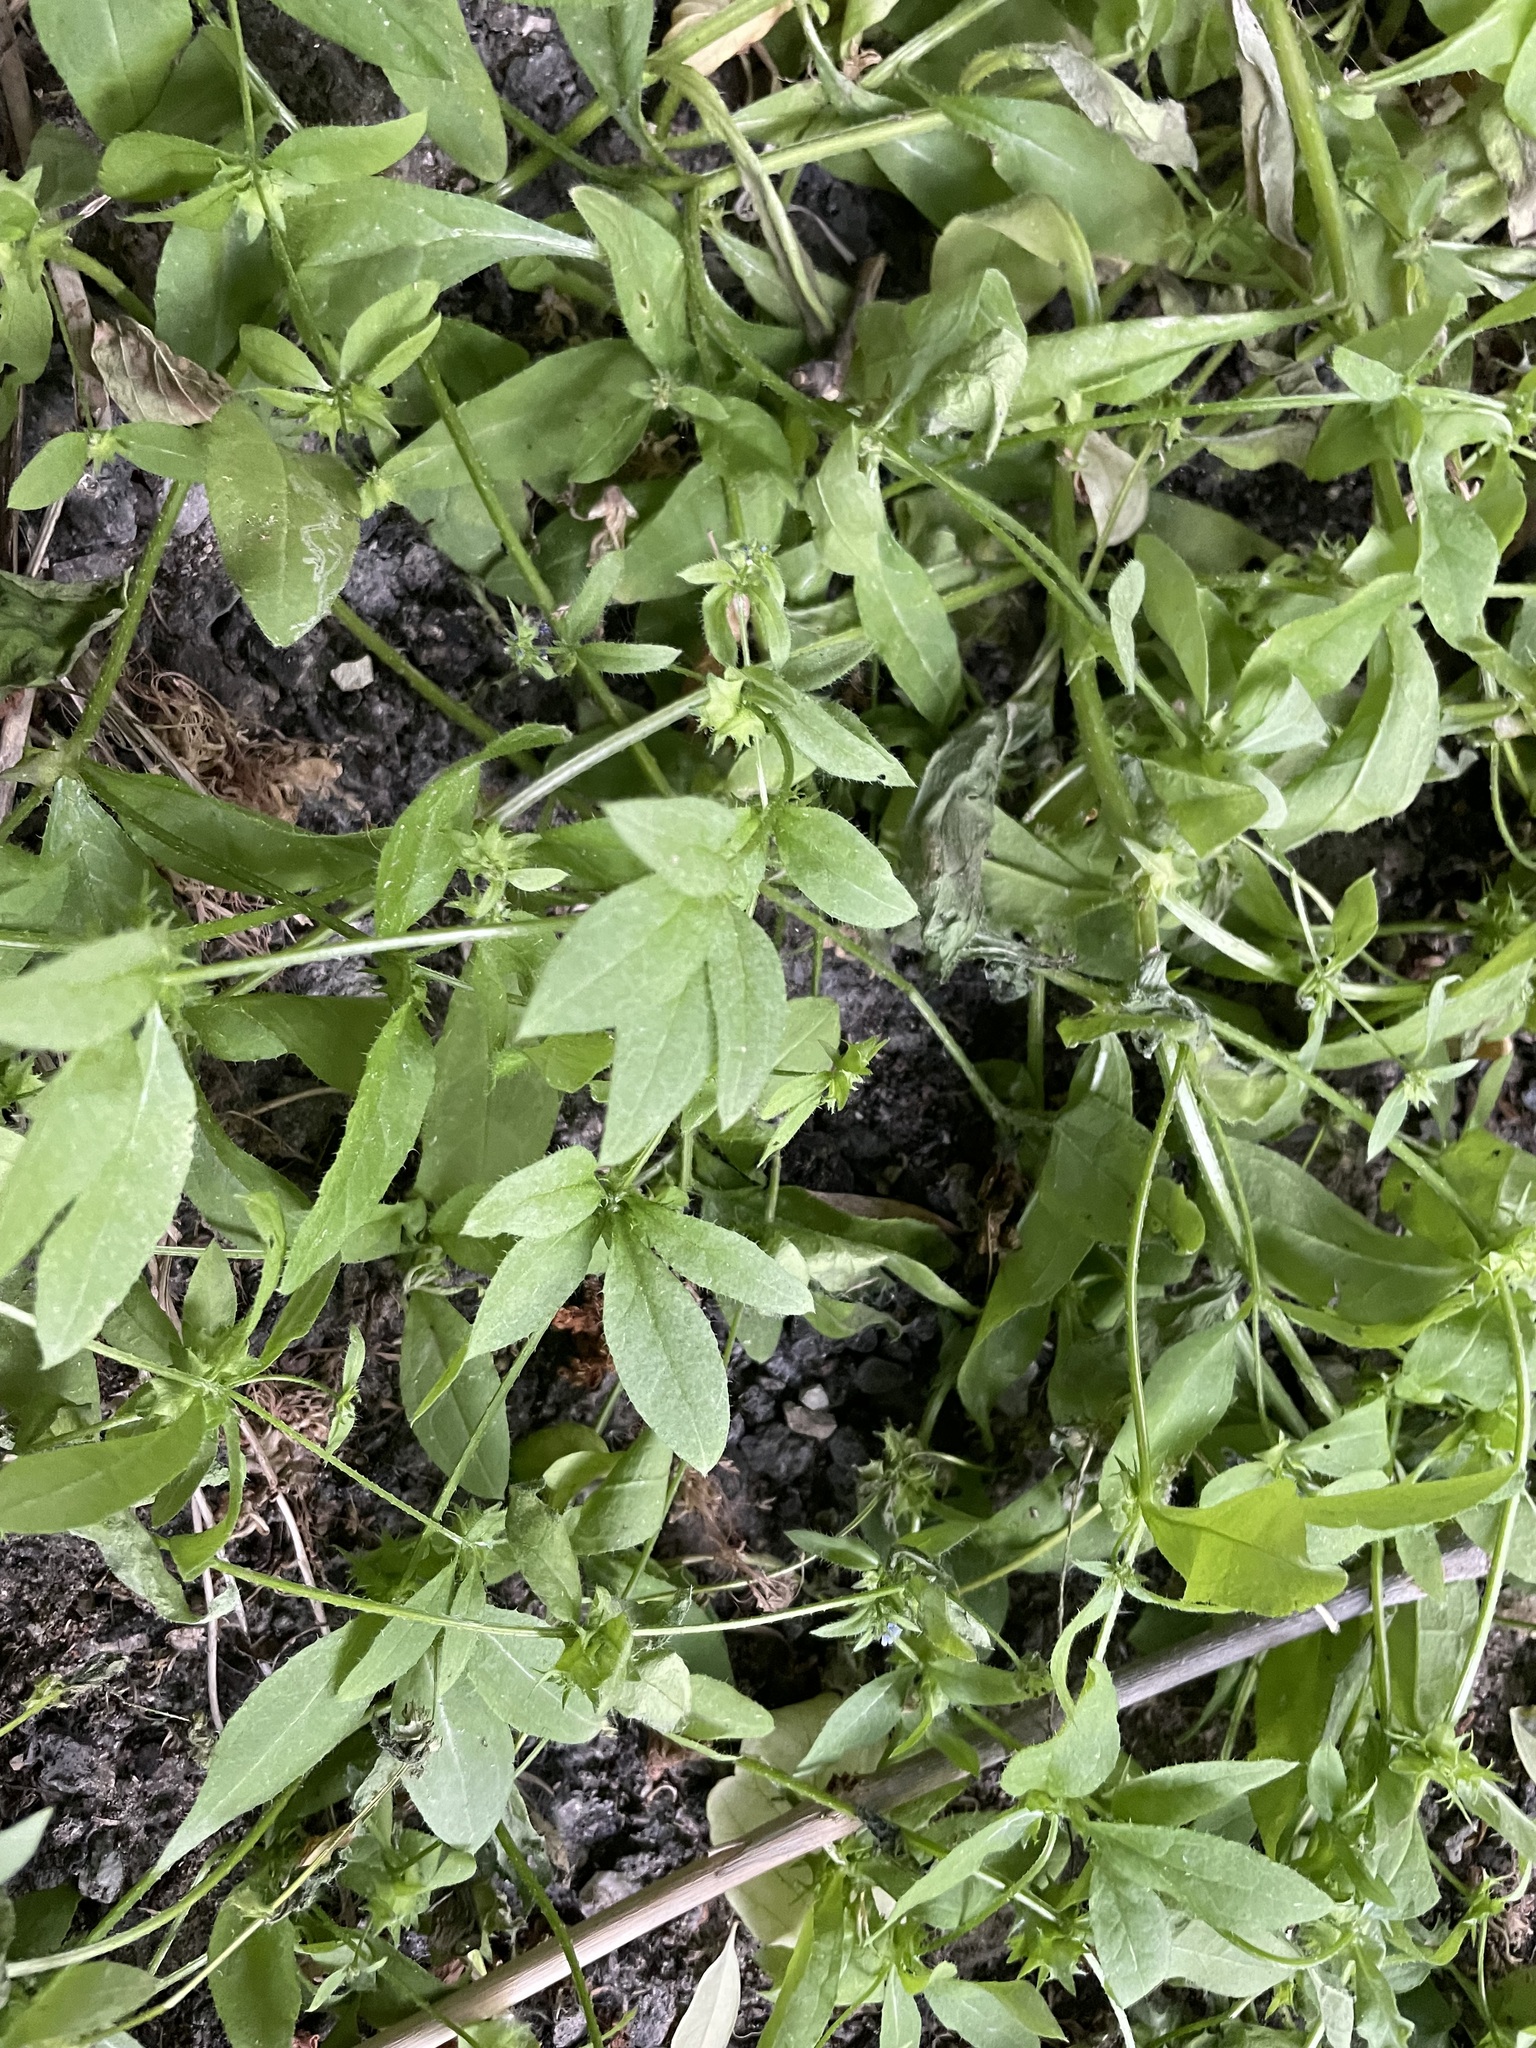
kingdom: Plantae
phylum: Tracheophyta
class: Magnoliopsida
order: Boraginales
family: Boraginaceae
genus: Asperugo
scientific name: Asperugo procumbens
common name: Madwort
